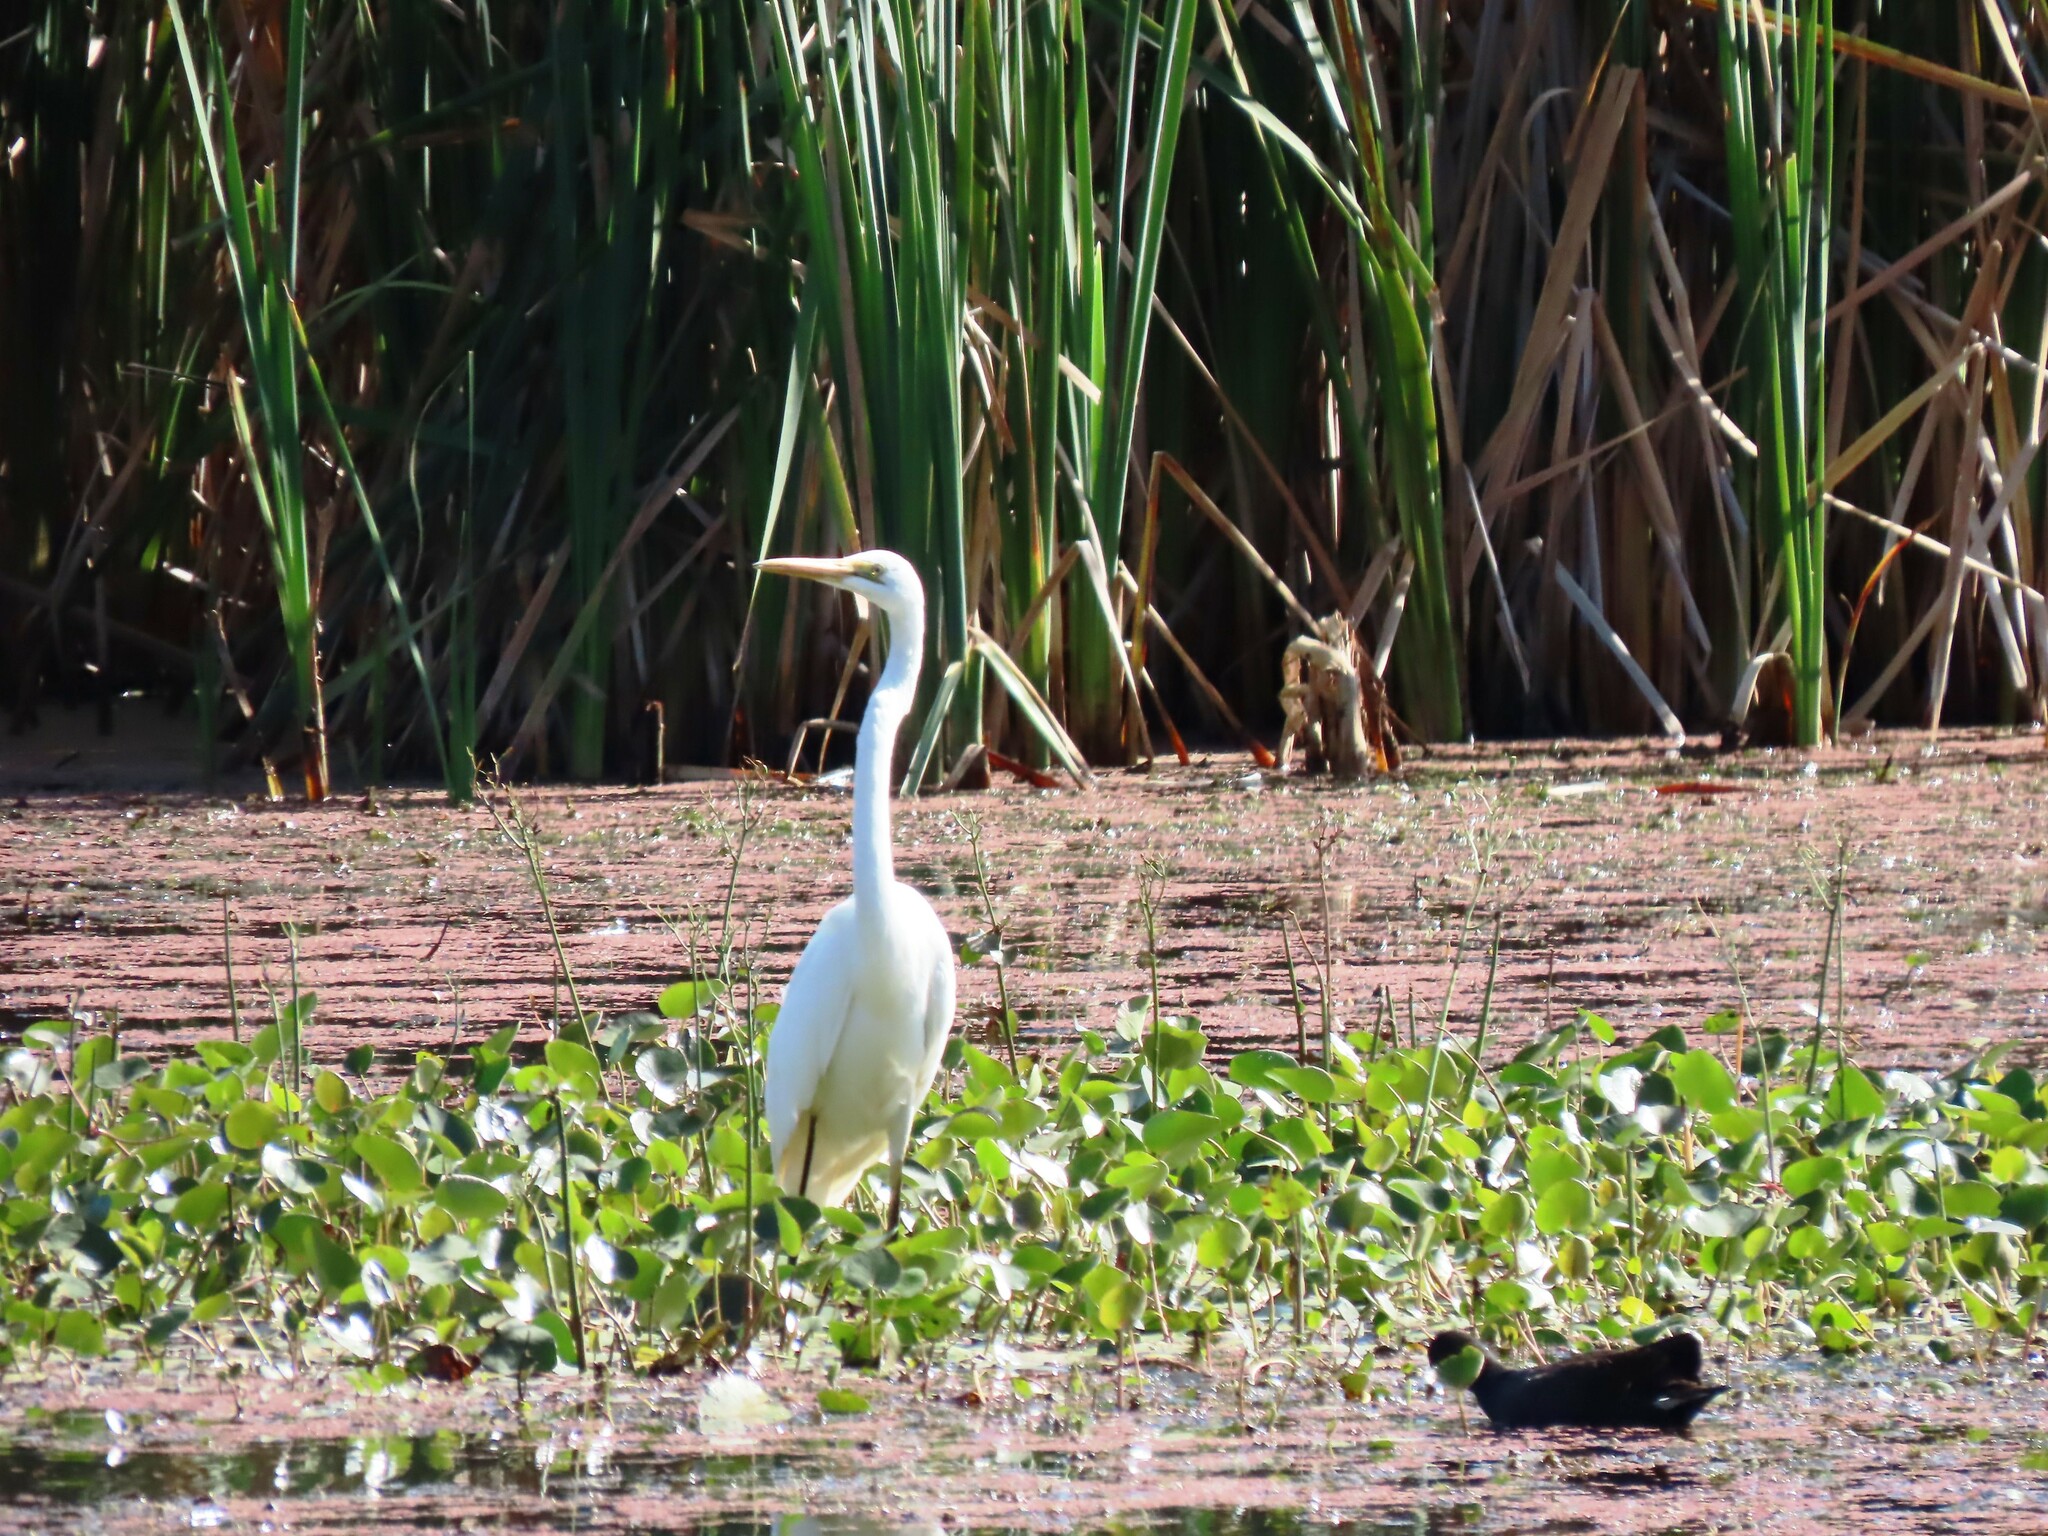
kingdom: Animalia
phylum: Chordata
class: Aves
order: Pelecaniformes
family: Ardeidae
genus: Ardea
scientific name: Ardea alba
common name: Great egret
